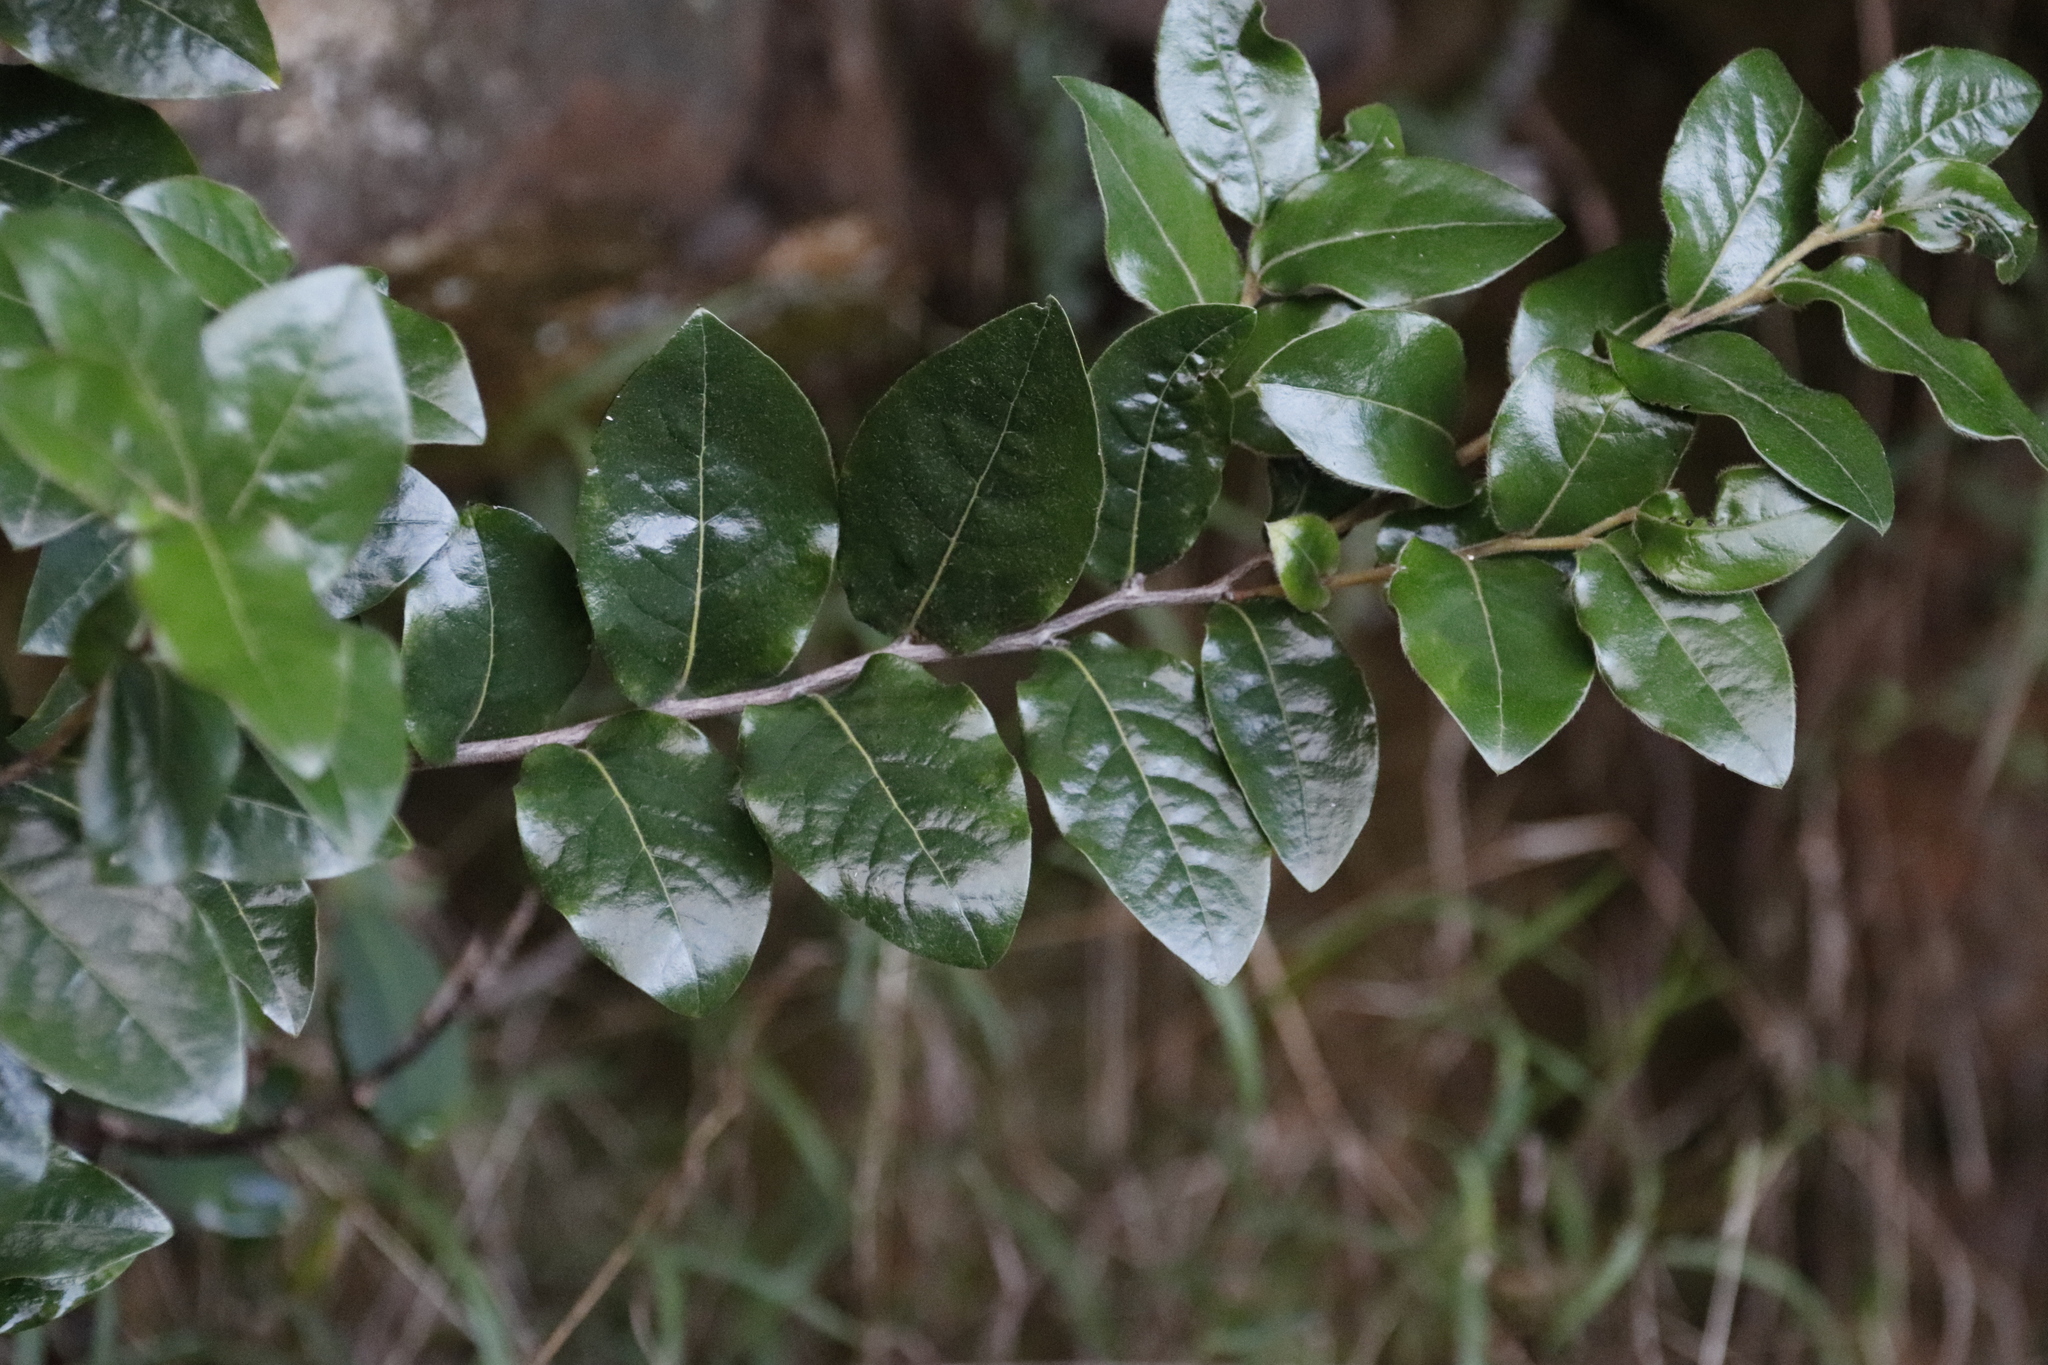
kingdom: Plantae
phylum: Tracheophyta
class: Magnoliopsida
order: Ericales
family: Ebenaceae
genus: Diospyros
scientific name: Diospyros whyteana
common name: Bladder-nut
